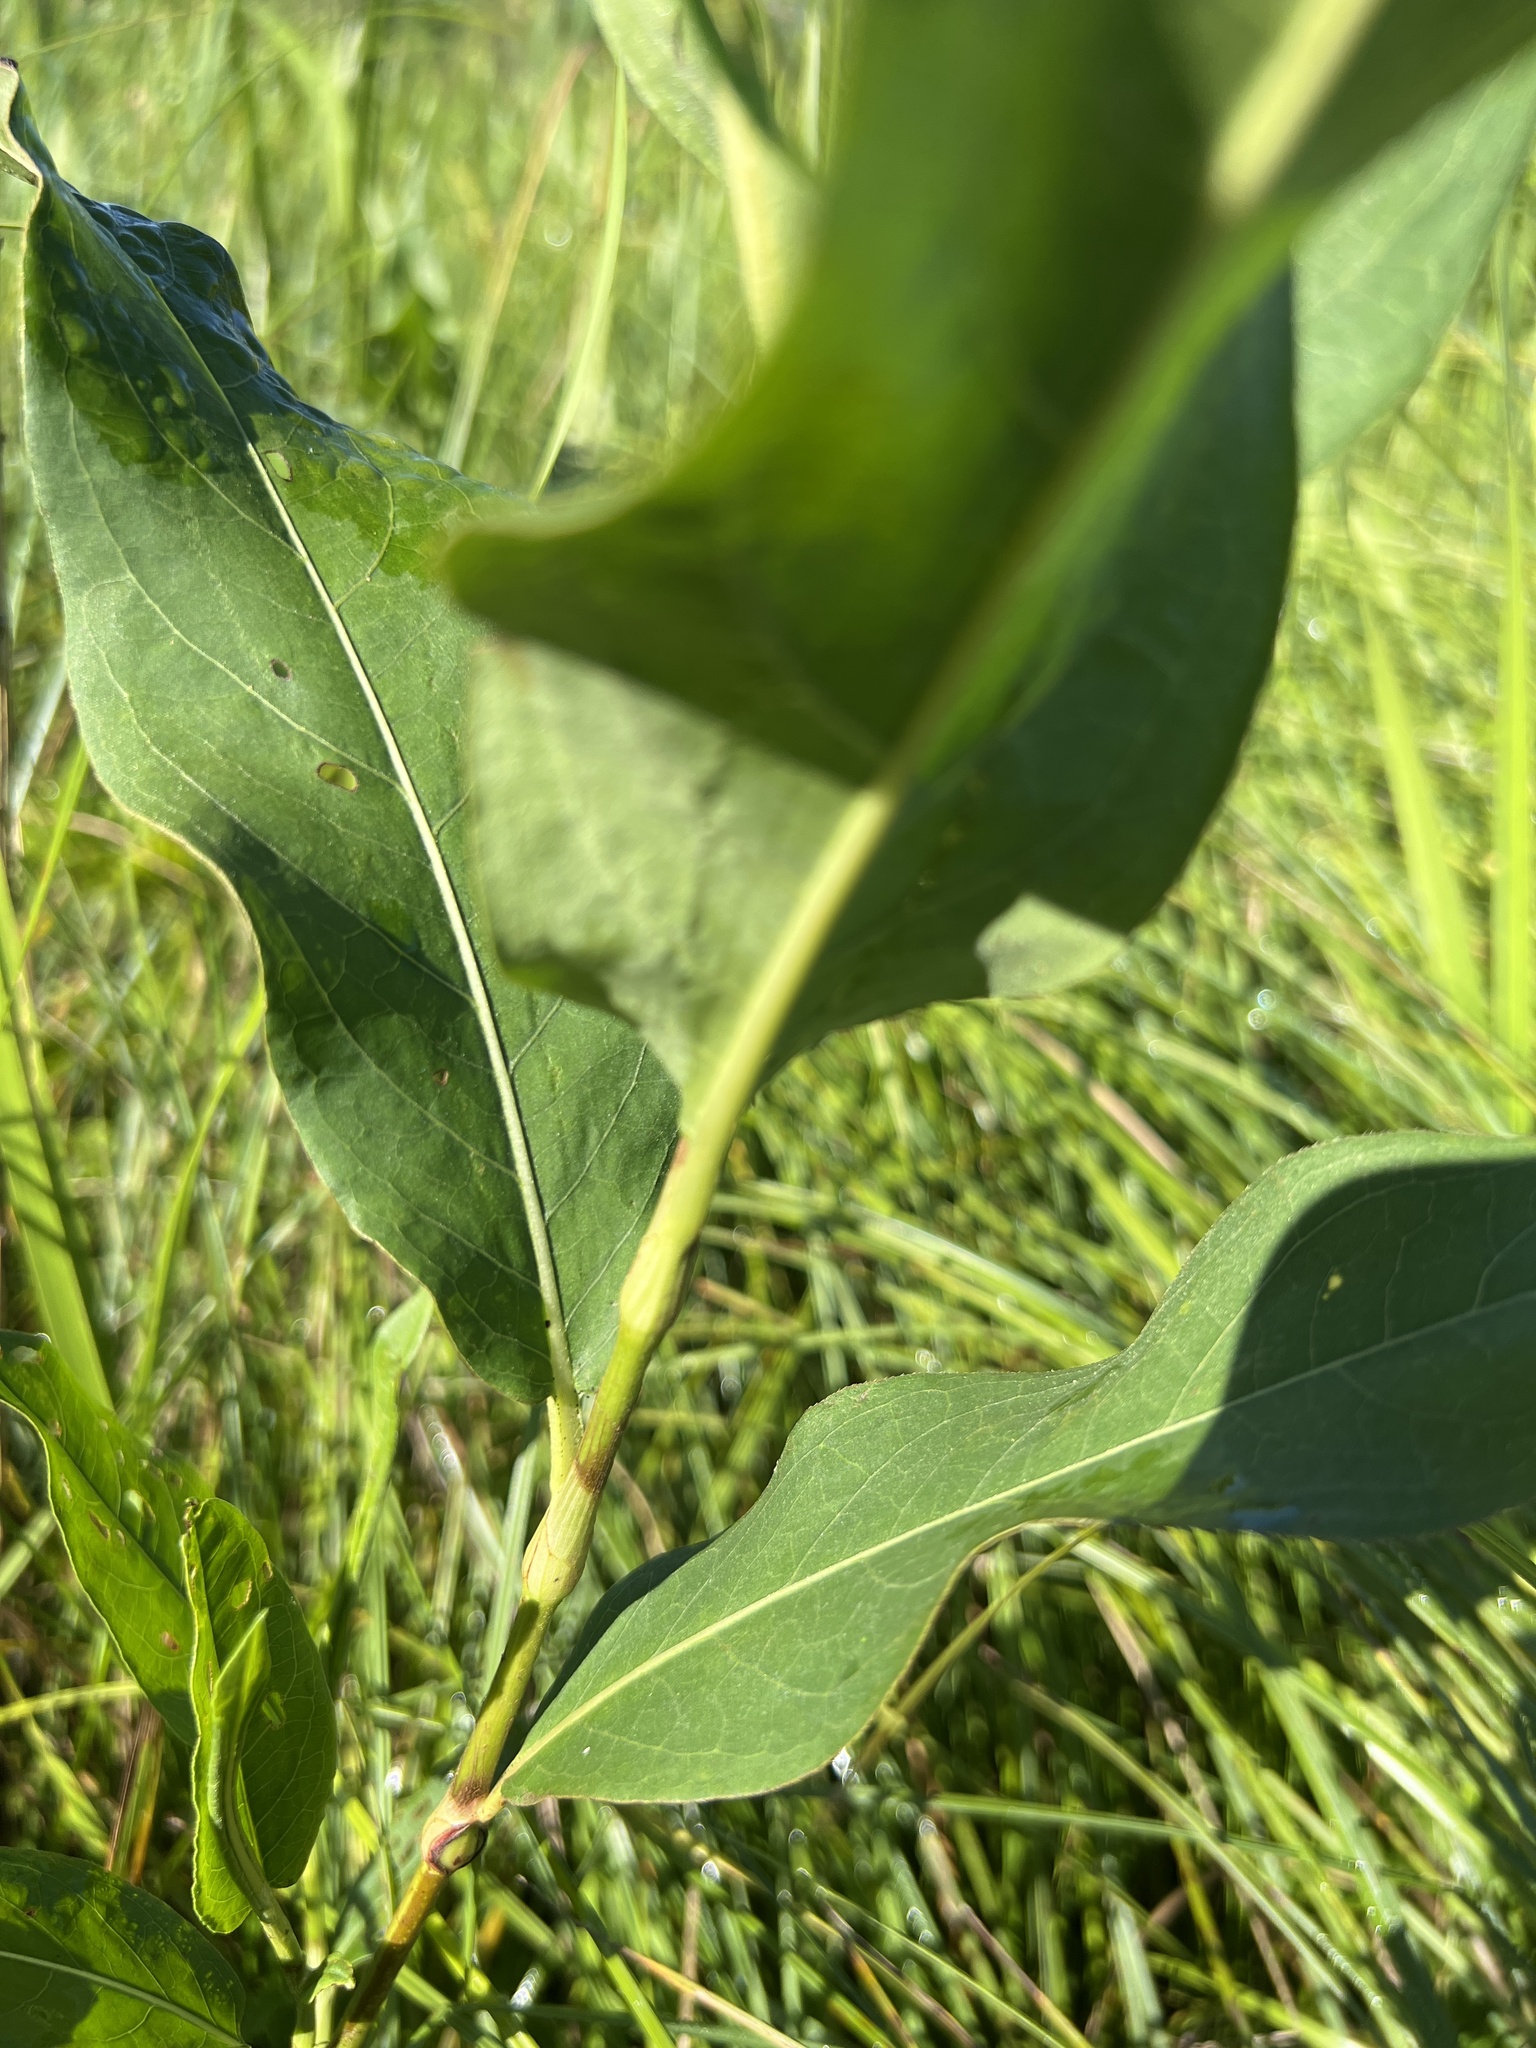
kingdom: Plantae
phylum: Tracheophyta
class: Magnoliopsida
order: Caryophyllales
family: Polygonaceae
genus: Persicaria
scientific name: Persicaria amphibia
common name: Amphibious bistort
